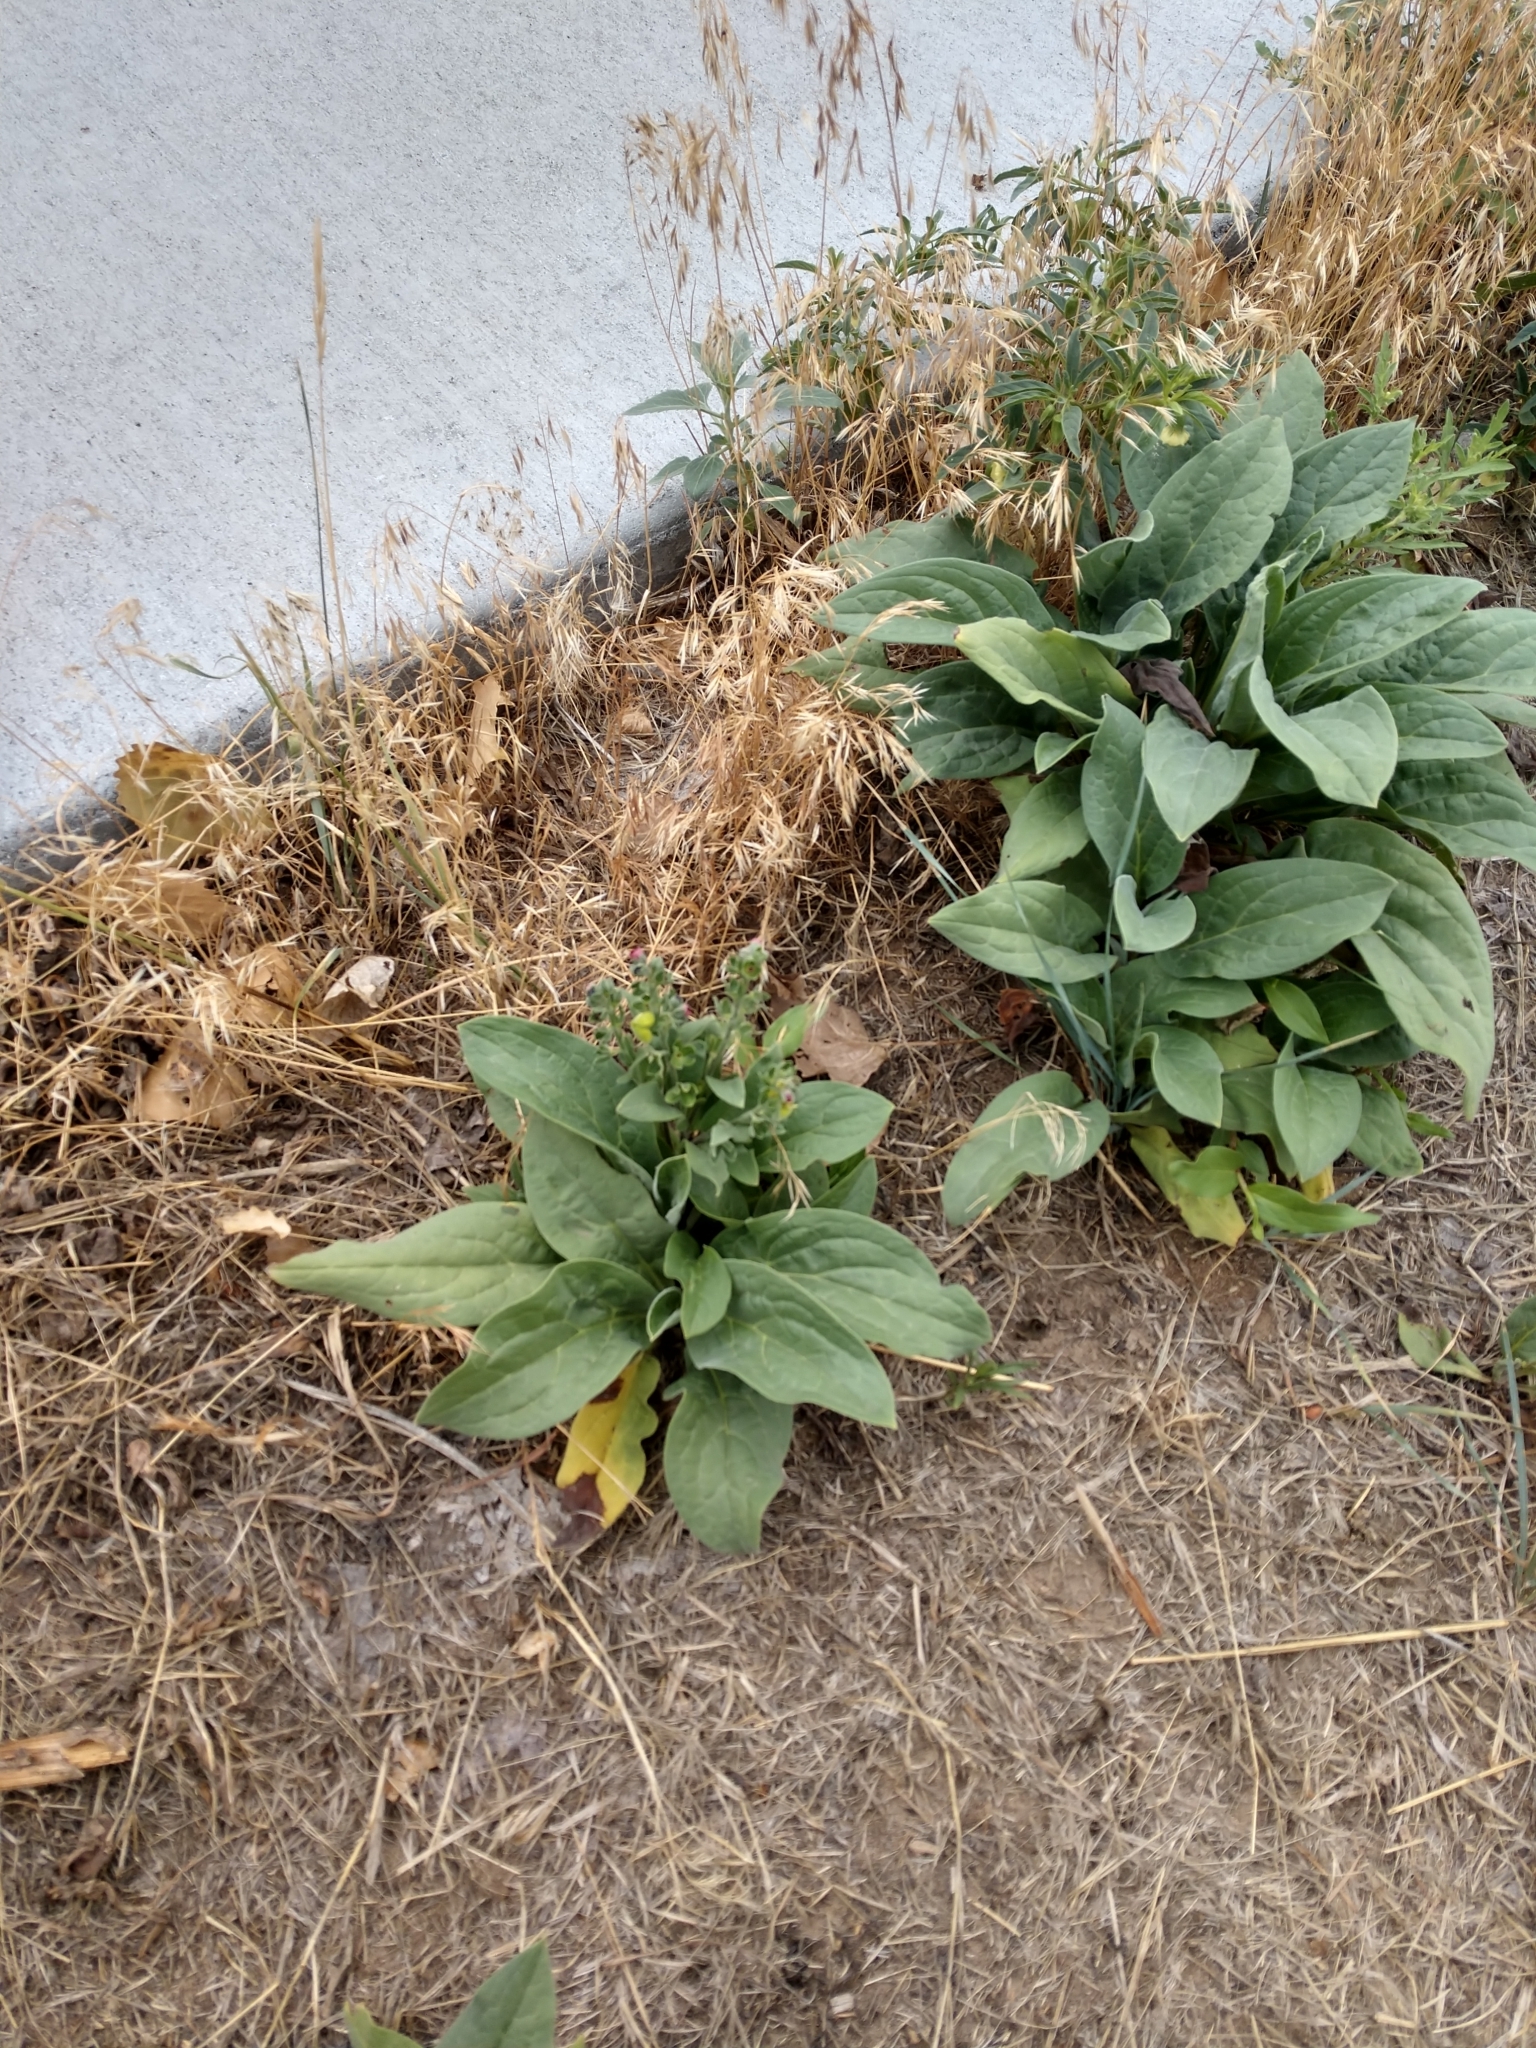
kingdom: Plantae
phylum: Tracheophyta
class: Magnoliopsida
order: Boraginales
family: Boraginaceae
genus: Cynoglossum
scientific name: Cynoglossum officinale
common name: Hound's-tongue
